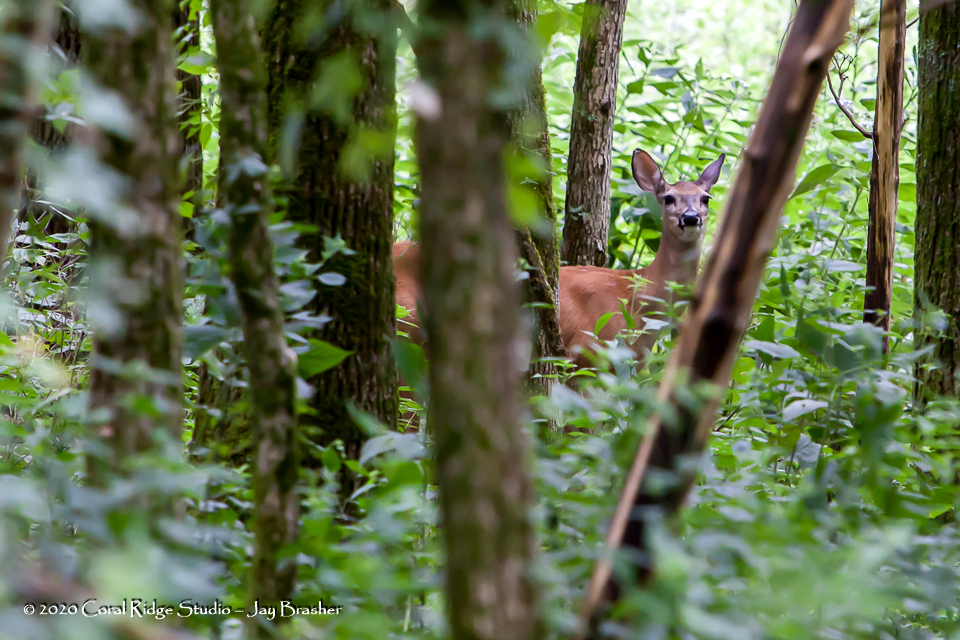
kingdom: Animalia
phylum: Chordata
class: Mammalia
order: Artiodactyla
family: Cervidae
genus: Odocoileus
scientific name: Odocoileus virginianus
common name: White-tailed deer
